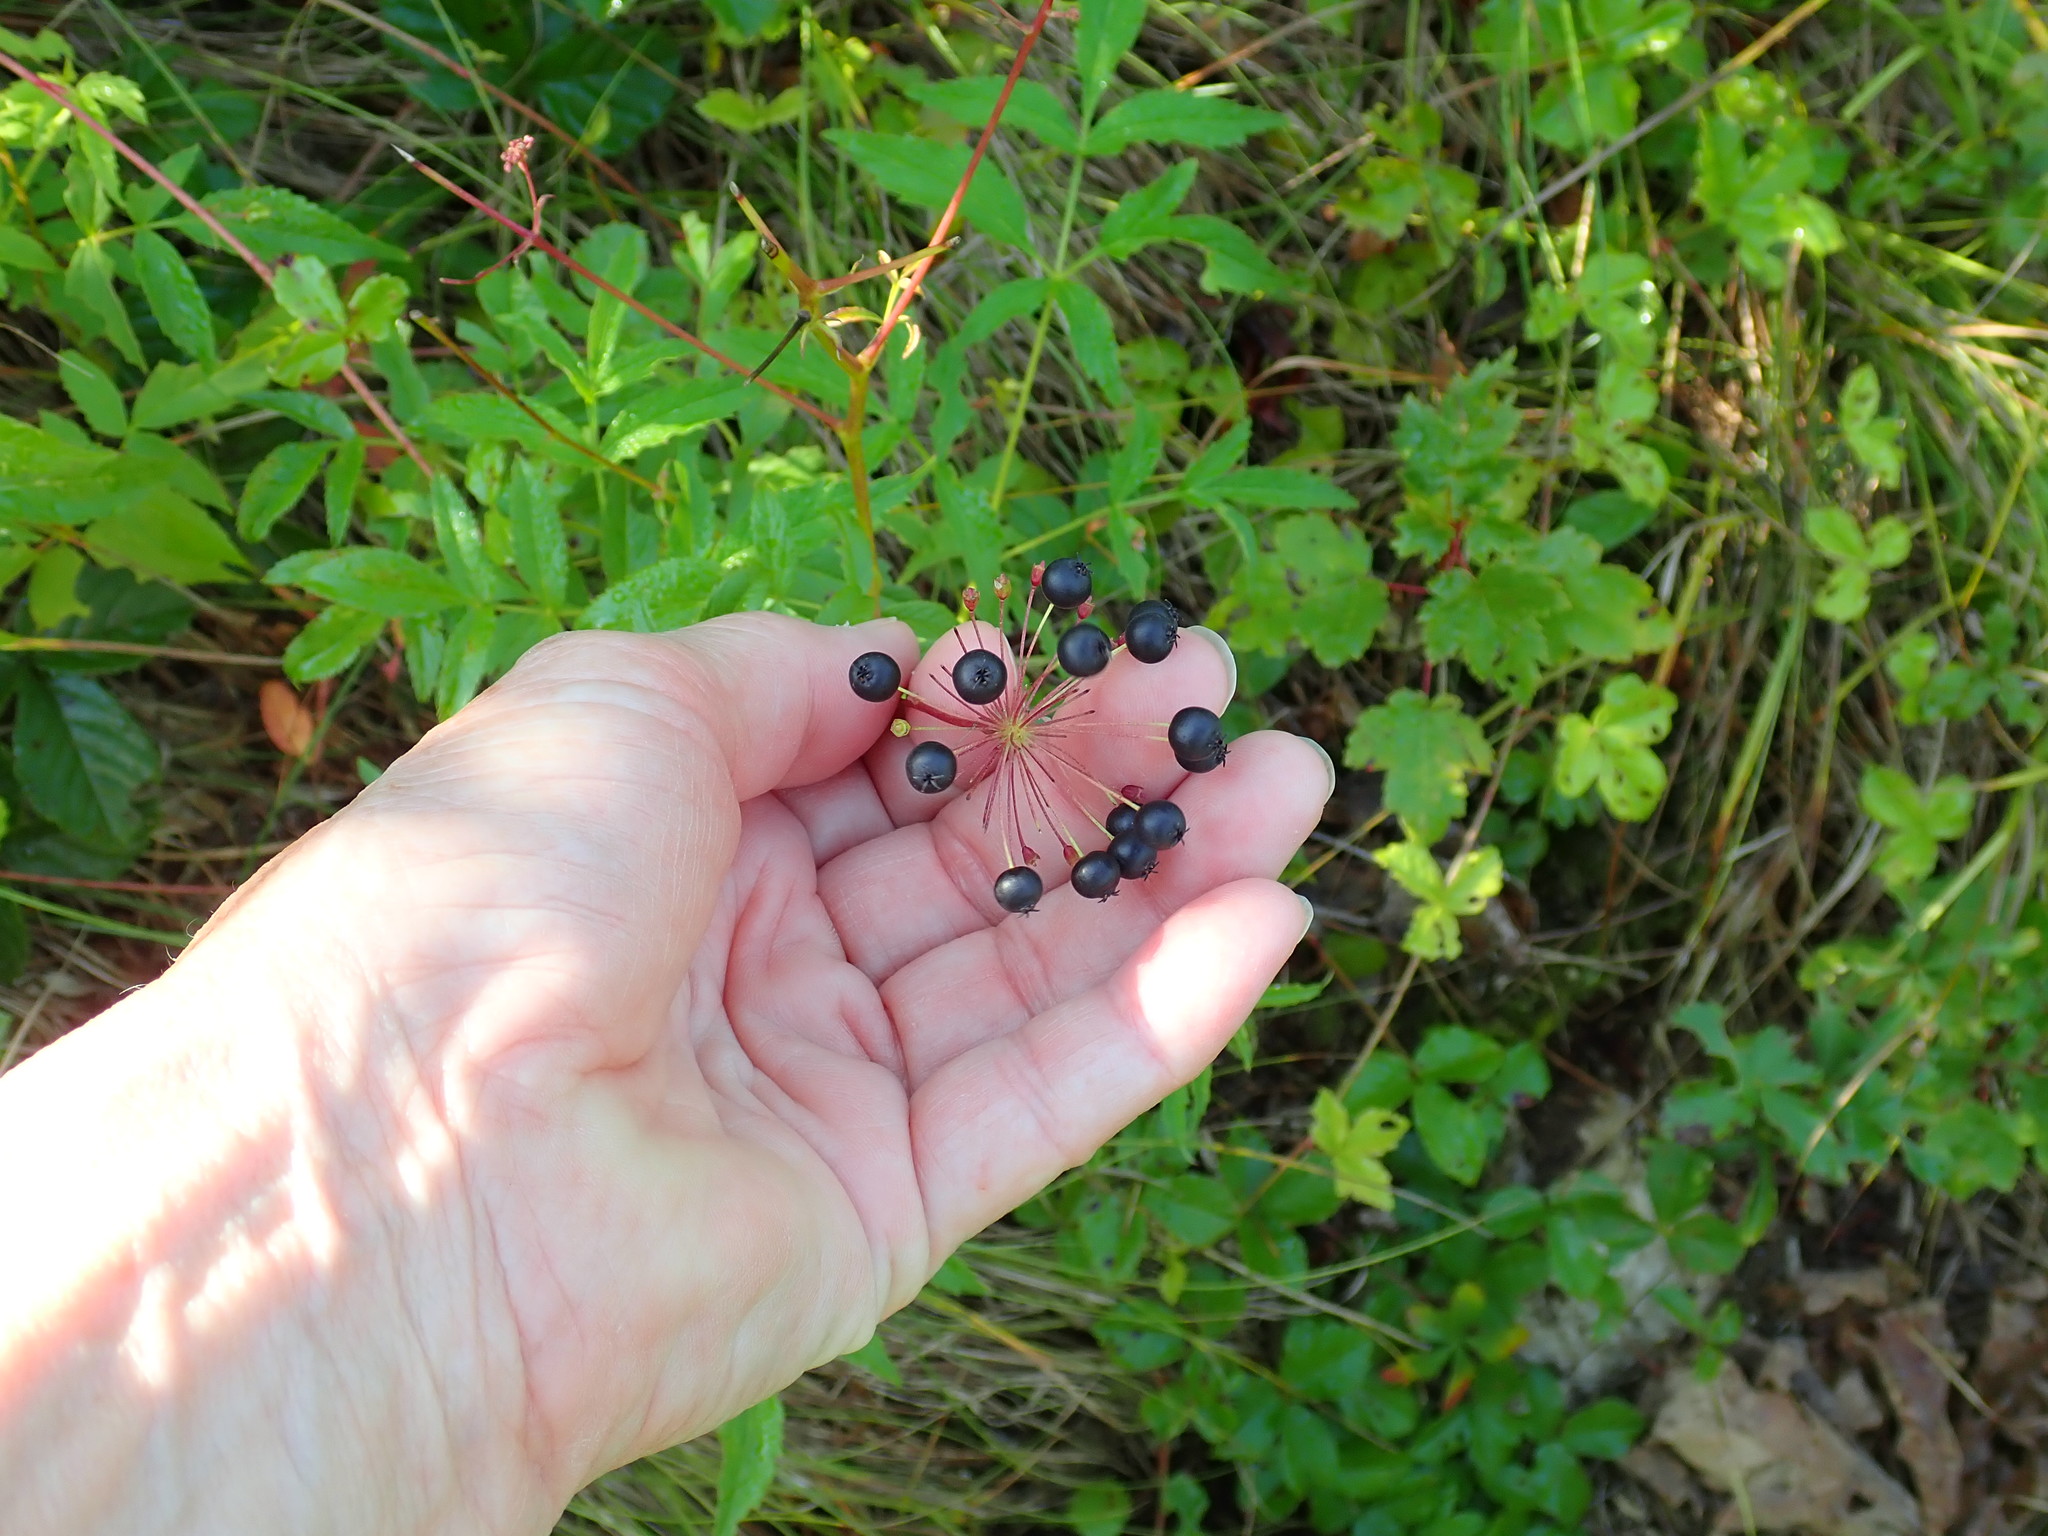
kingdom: Plantae
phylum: Tracheophyta
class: Magnoliopsida
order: Apiales
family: Araliaceae
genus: Aralia
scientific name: Aralia hispida
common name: Bristly sarsaparilla
